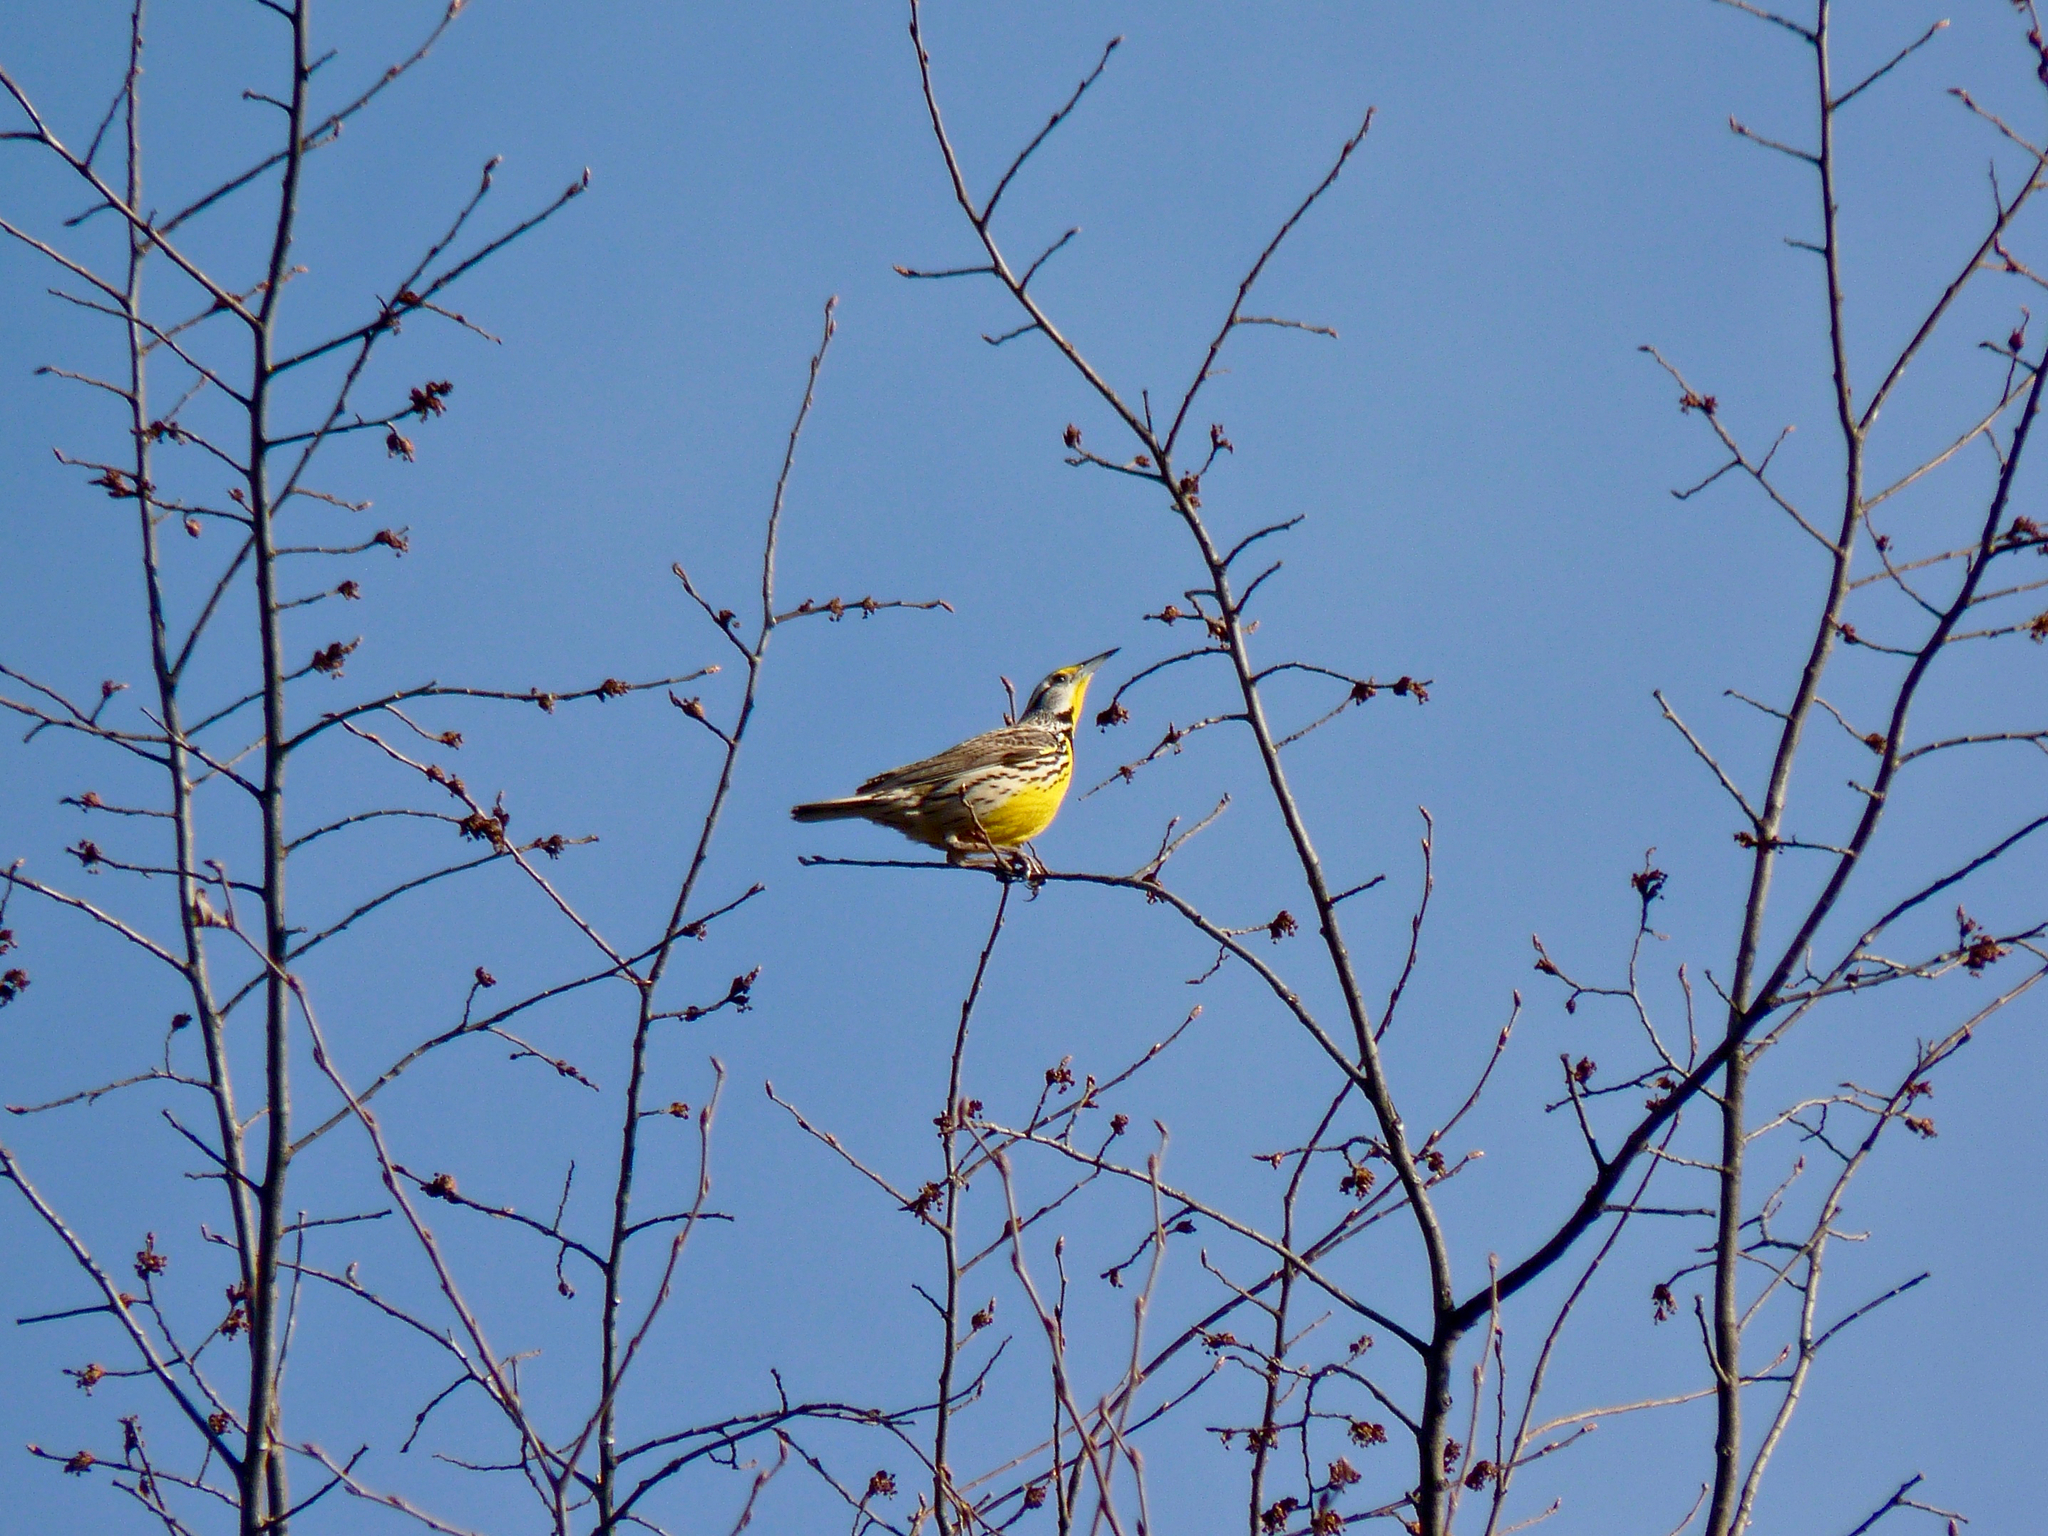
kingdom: Animalia
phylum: Chordata
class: Aves
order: Passeriformes
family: Icteridae
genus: Sturnella
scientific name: Sturnella magna
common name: Eastern meadowlark
